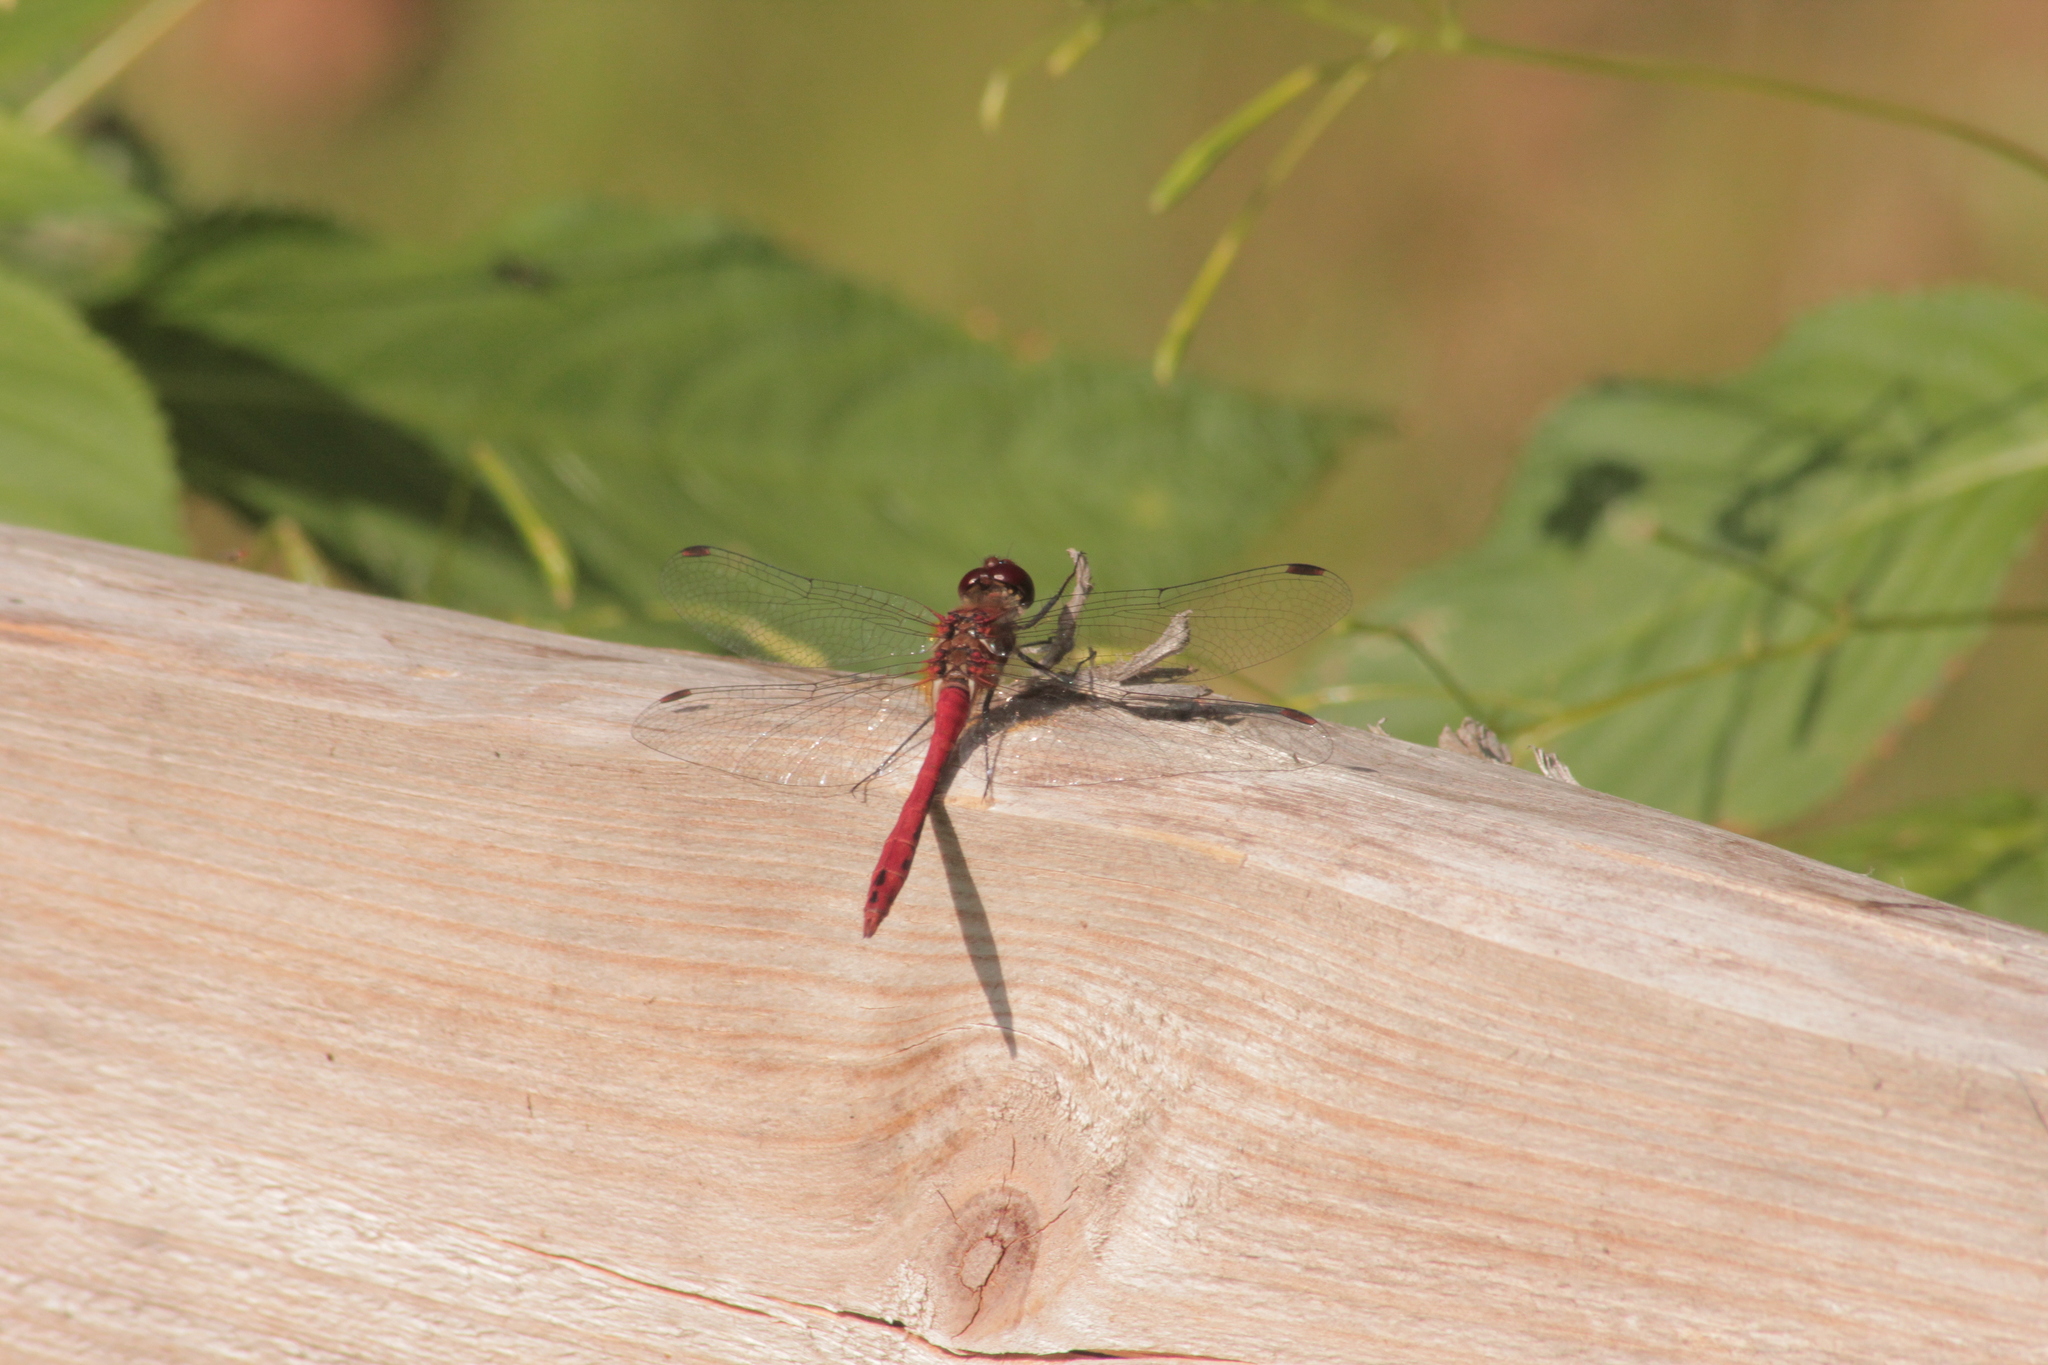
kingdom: Animalia
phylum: Arthropoda
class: Insecta
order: Odonata
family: Libellulidae
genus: Sympetrum
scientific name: Sympetrum sanguineum
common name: Ruddy darter
